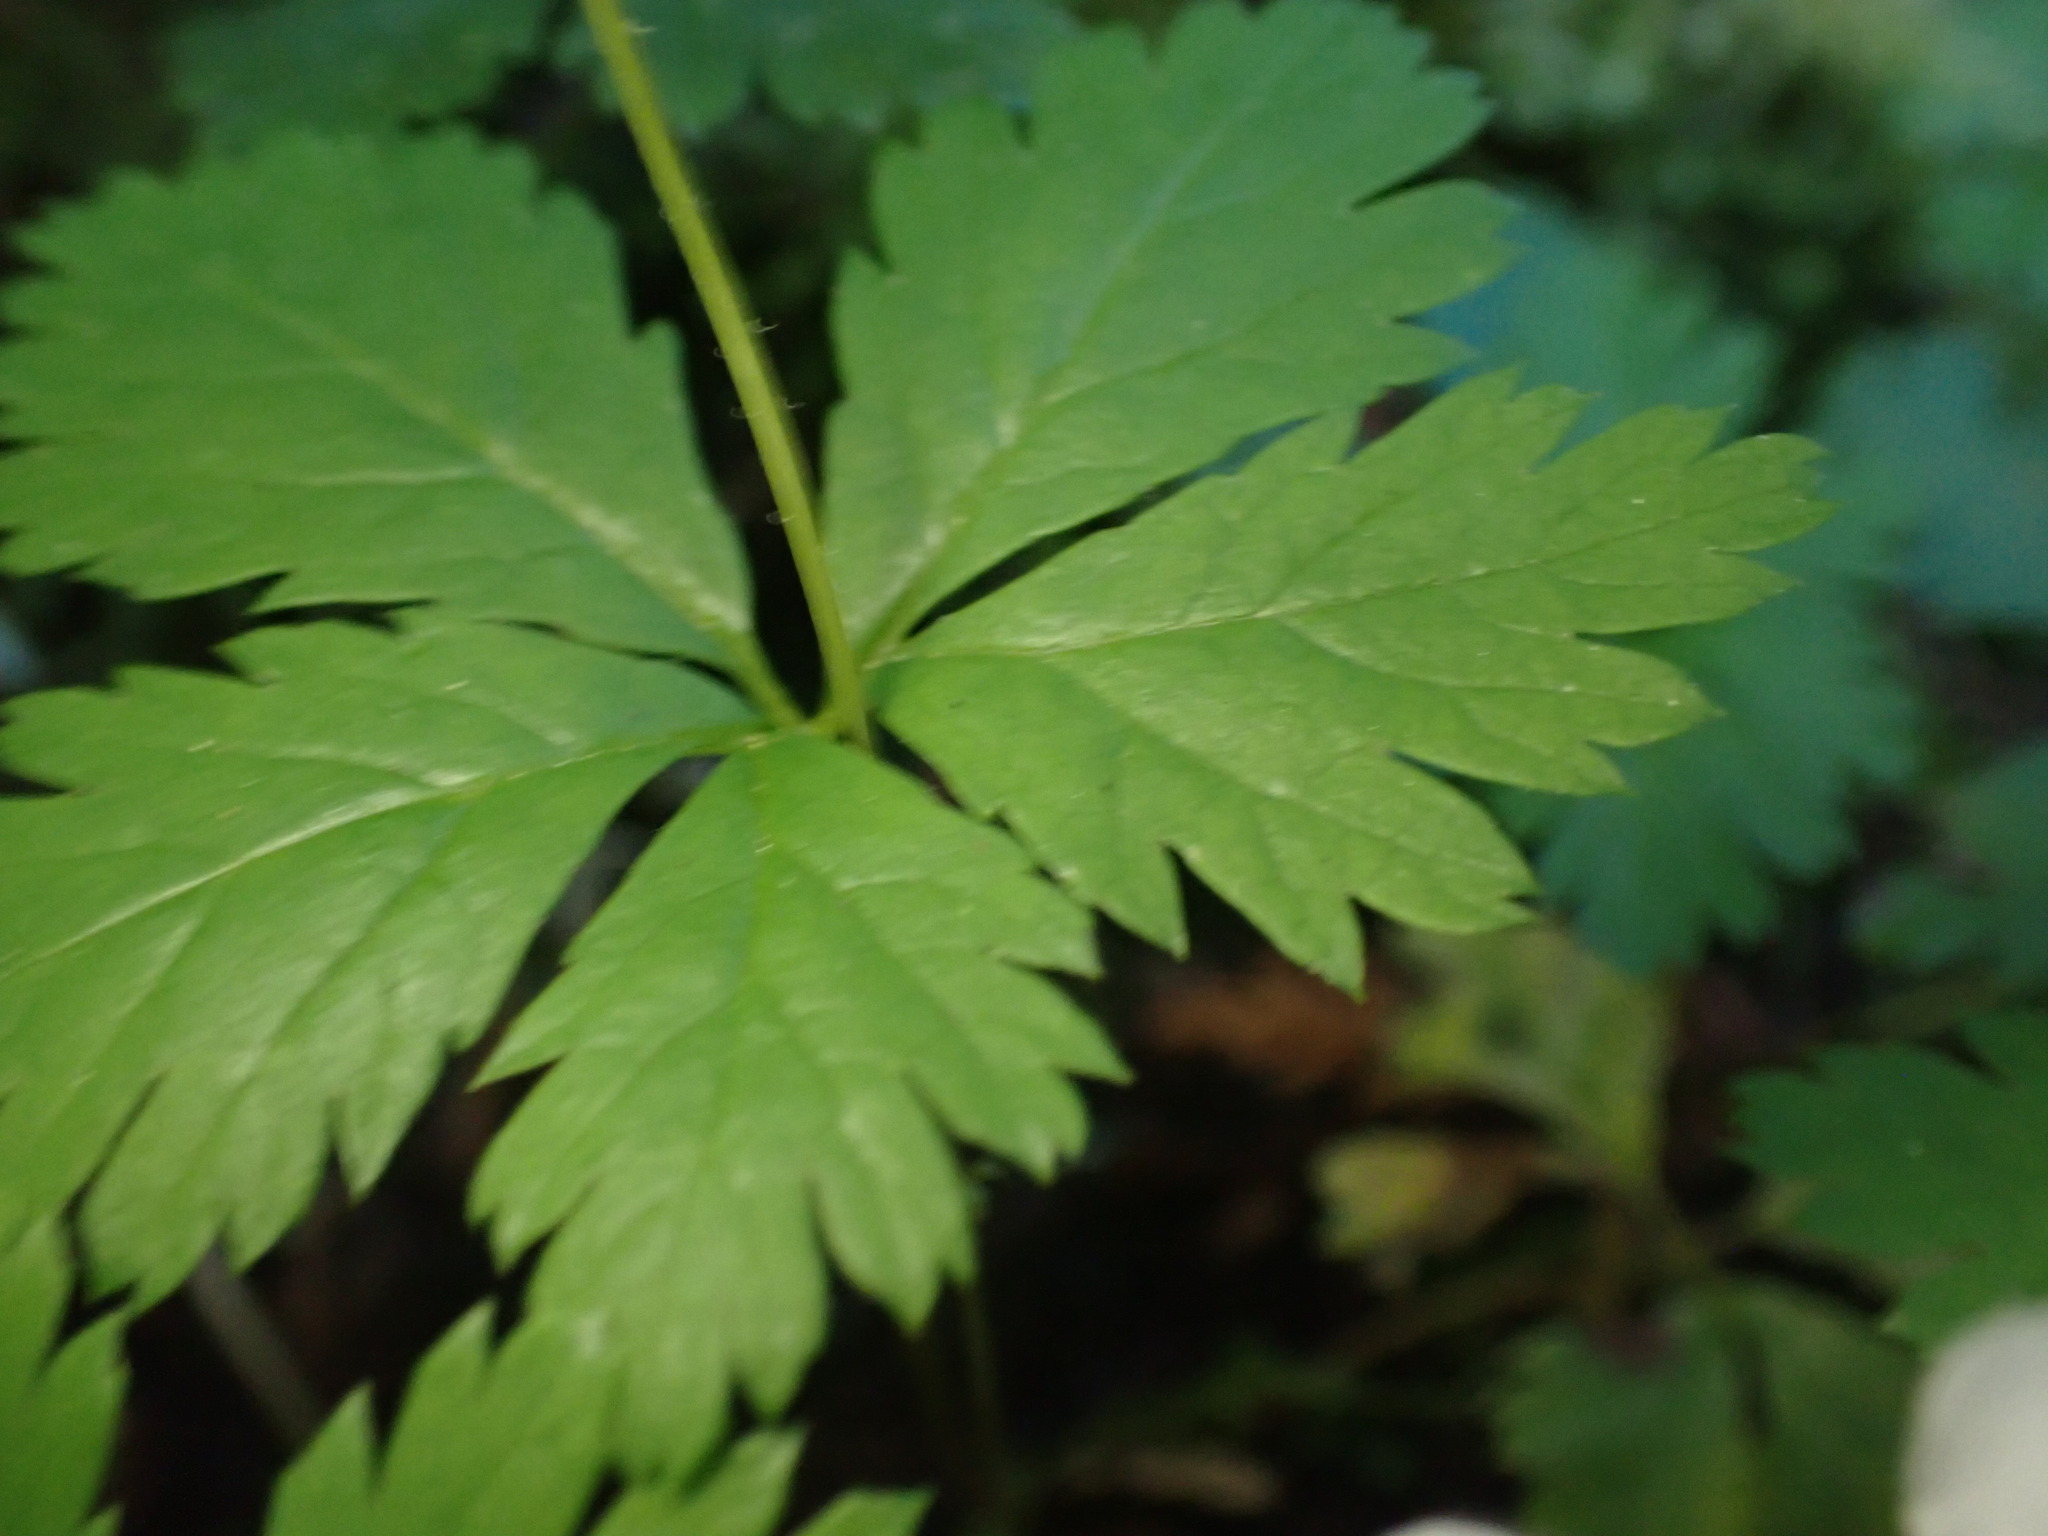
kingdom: Plantae
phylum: Tracheophyta
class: Magnoliopsida
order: Rosales
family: Rosaceae
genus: Rubus
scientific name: Rubus pedatus
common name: Creeping raspberry
